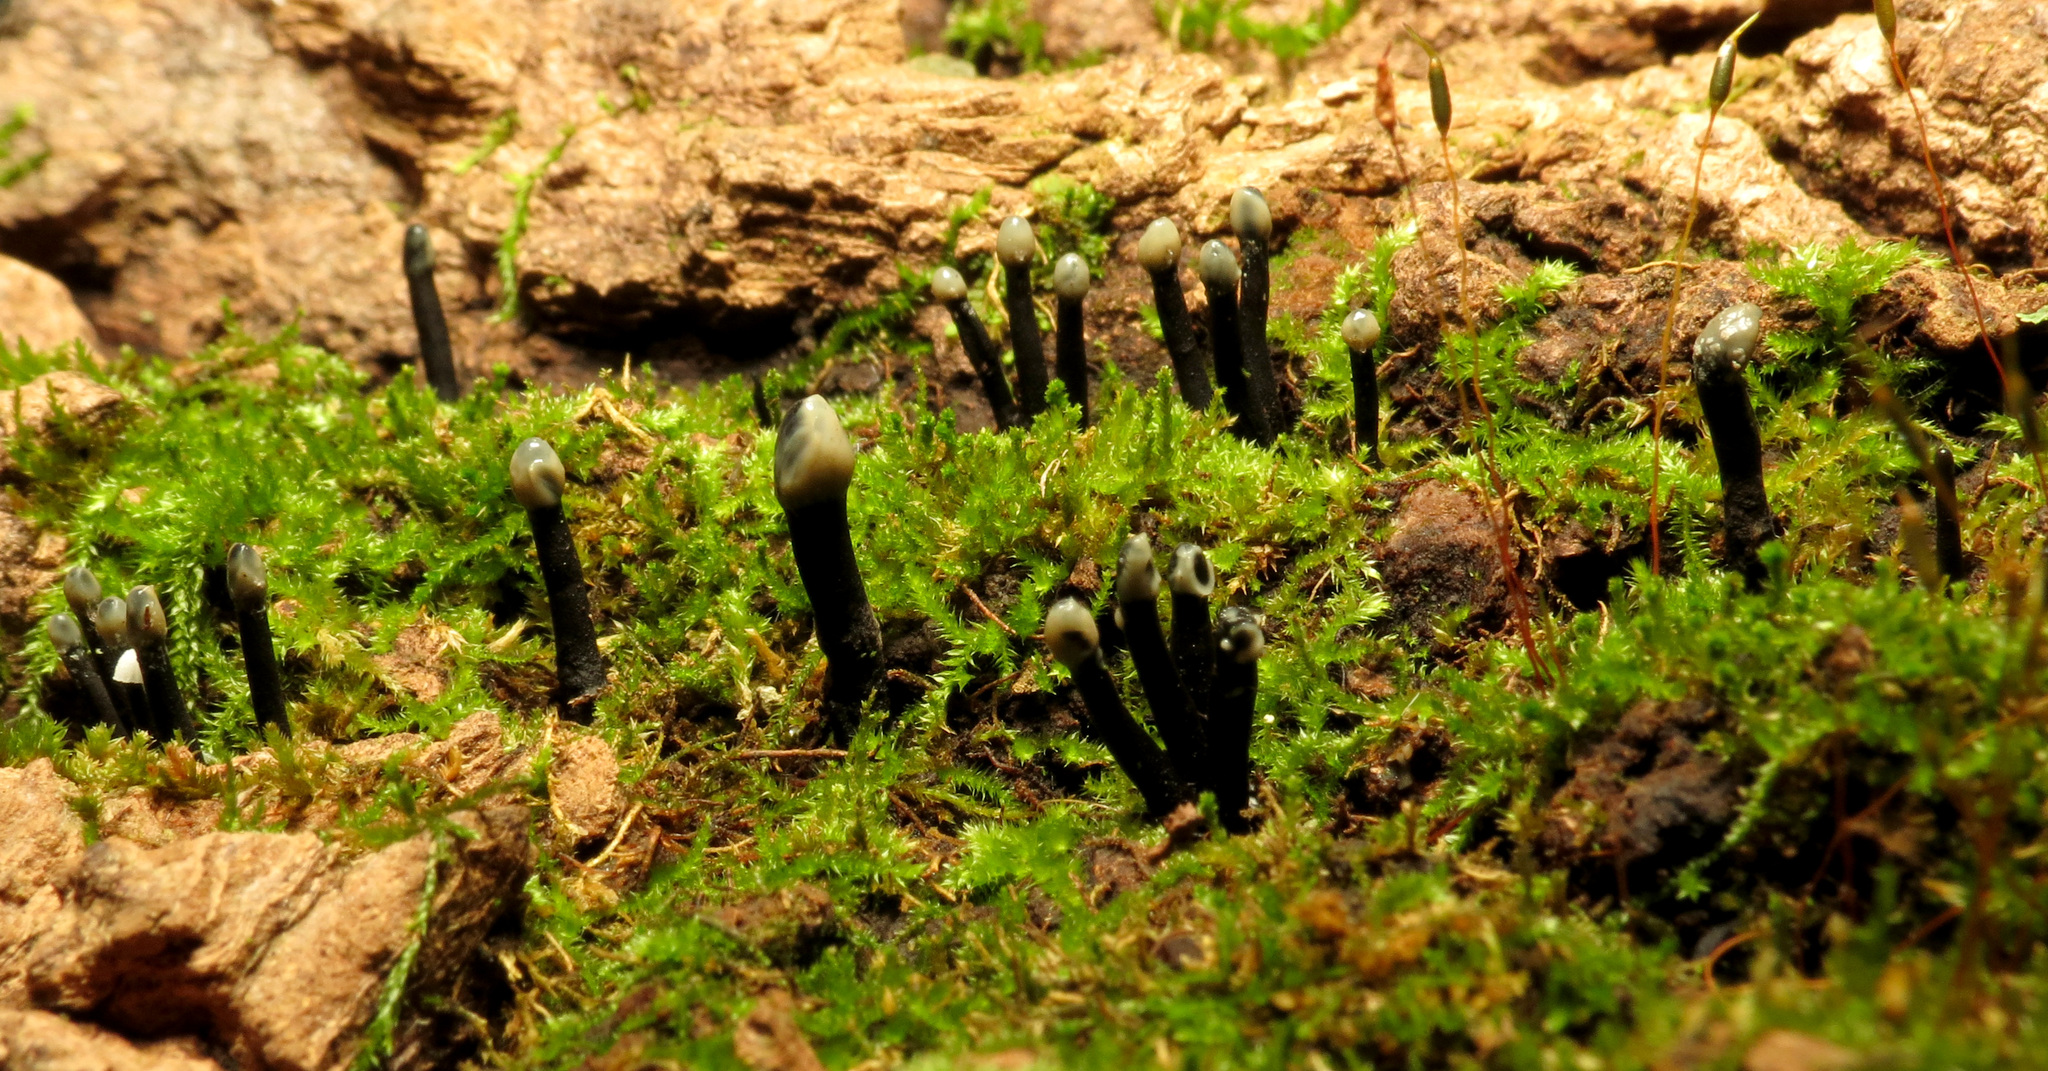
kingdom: Fungi
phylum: Ascomycota
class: Leotiomycetes
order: Helotiales
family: Bulgariaceae
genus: Holwaya
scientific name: Holwaya mucida
